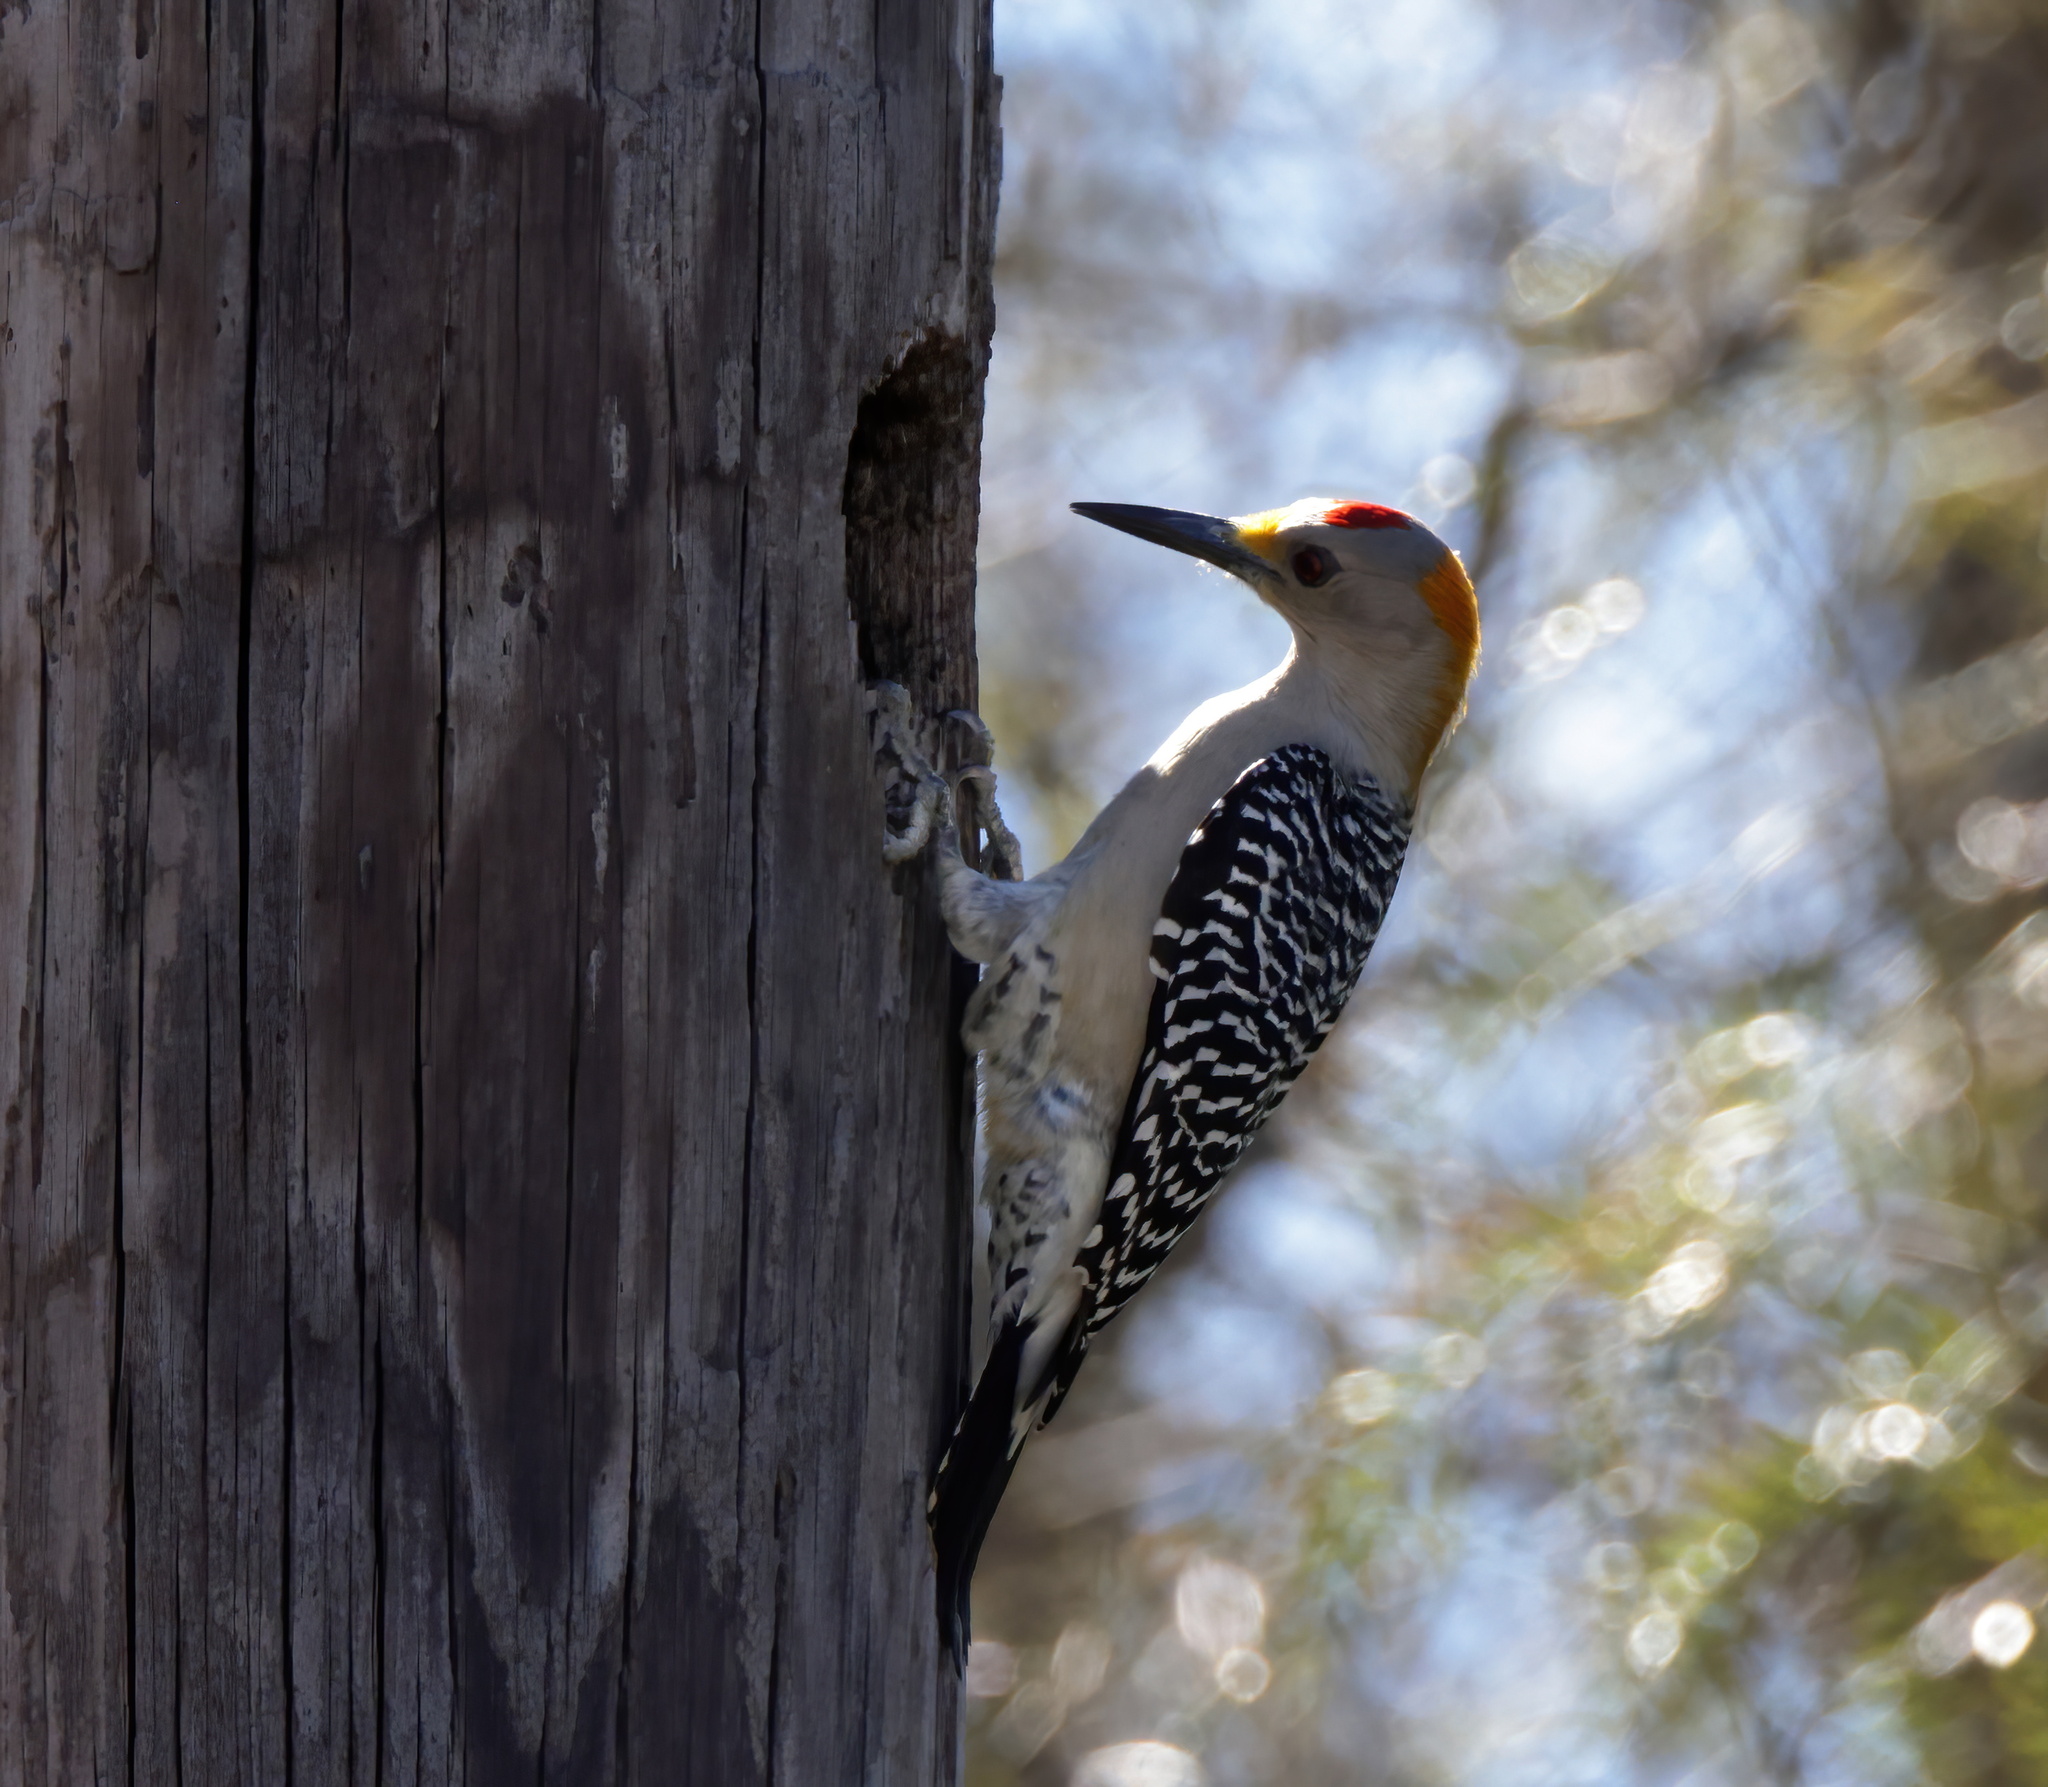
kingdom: Animalia
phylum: Chordata
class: Aves
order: Piciformes
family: Picidae
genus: Melanerpes
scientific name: Melanerpes aurifrons
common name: Golden-fronted woodpecker
